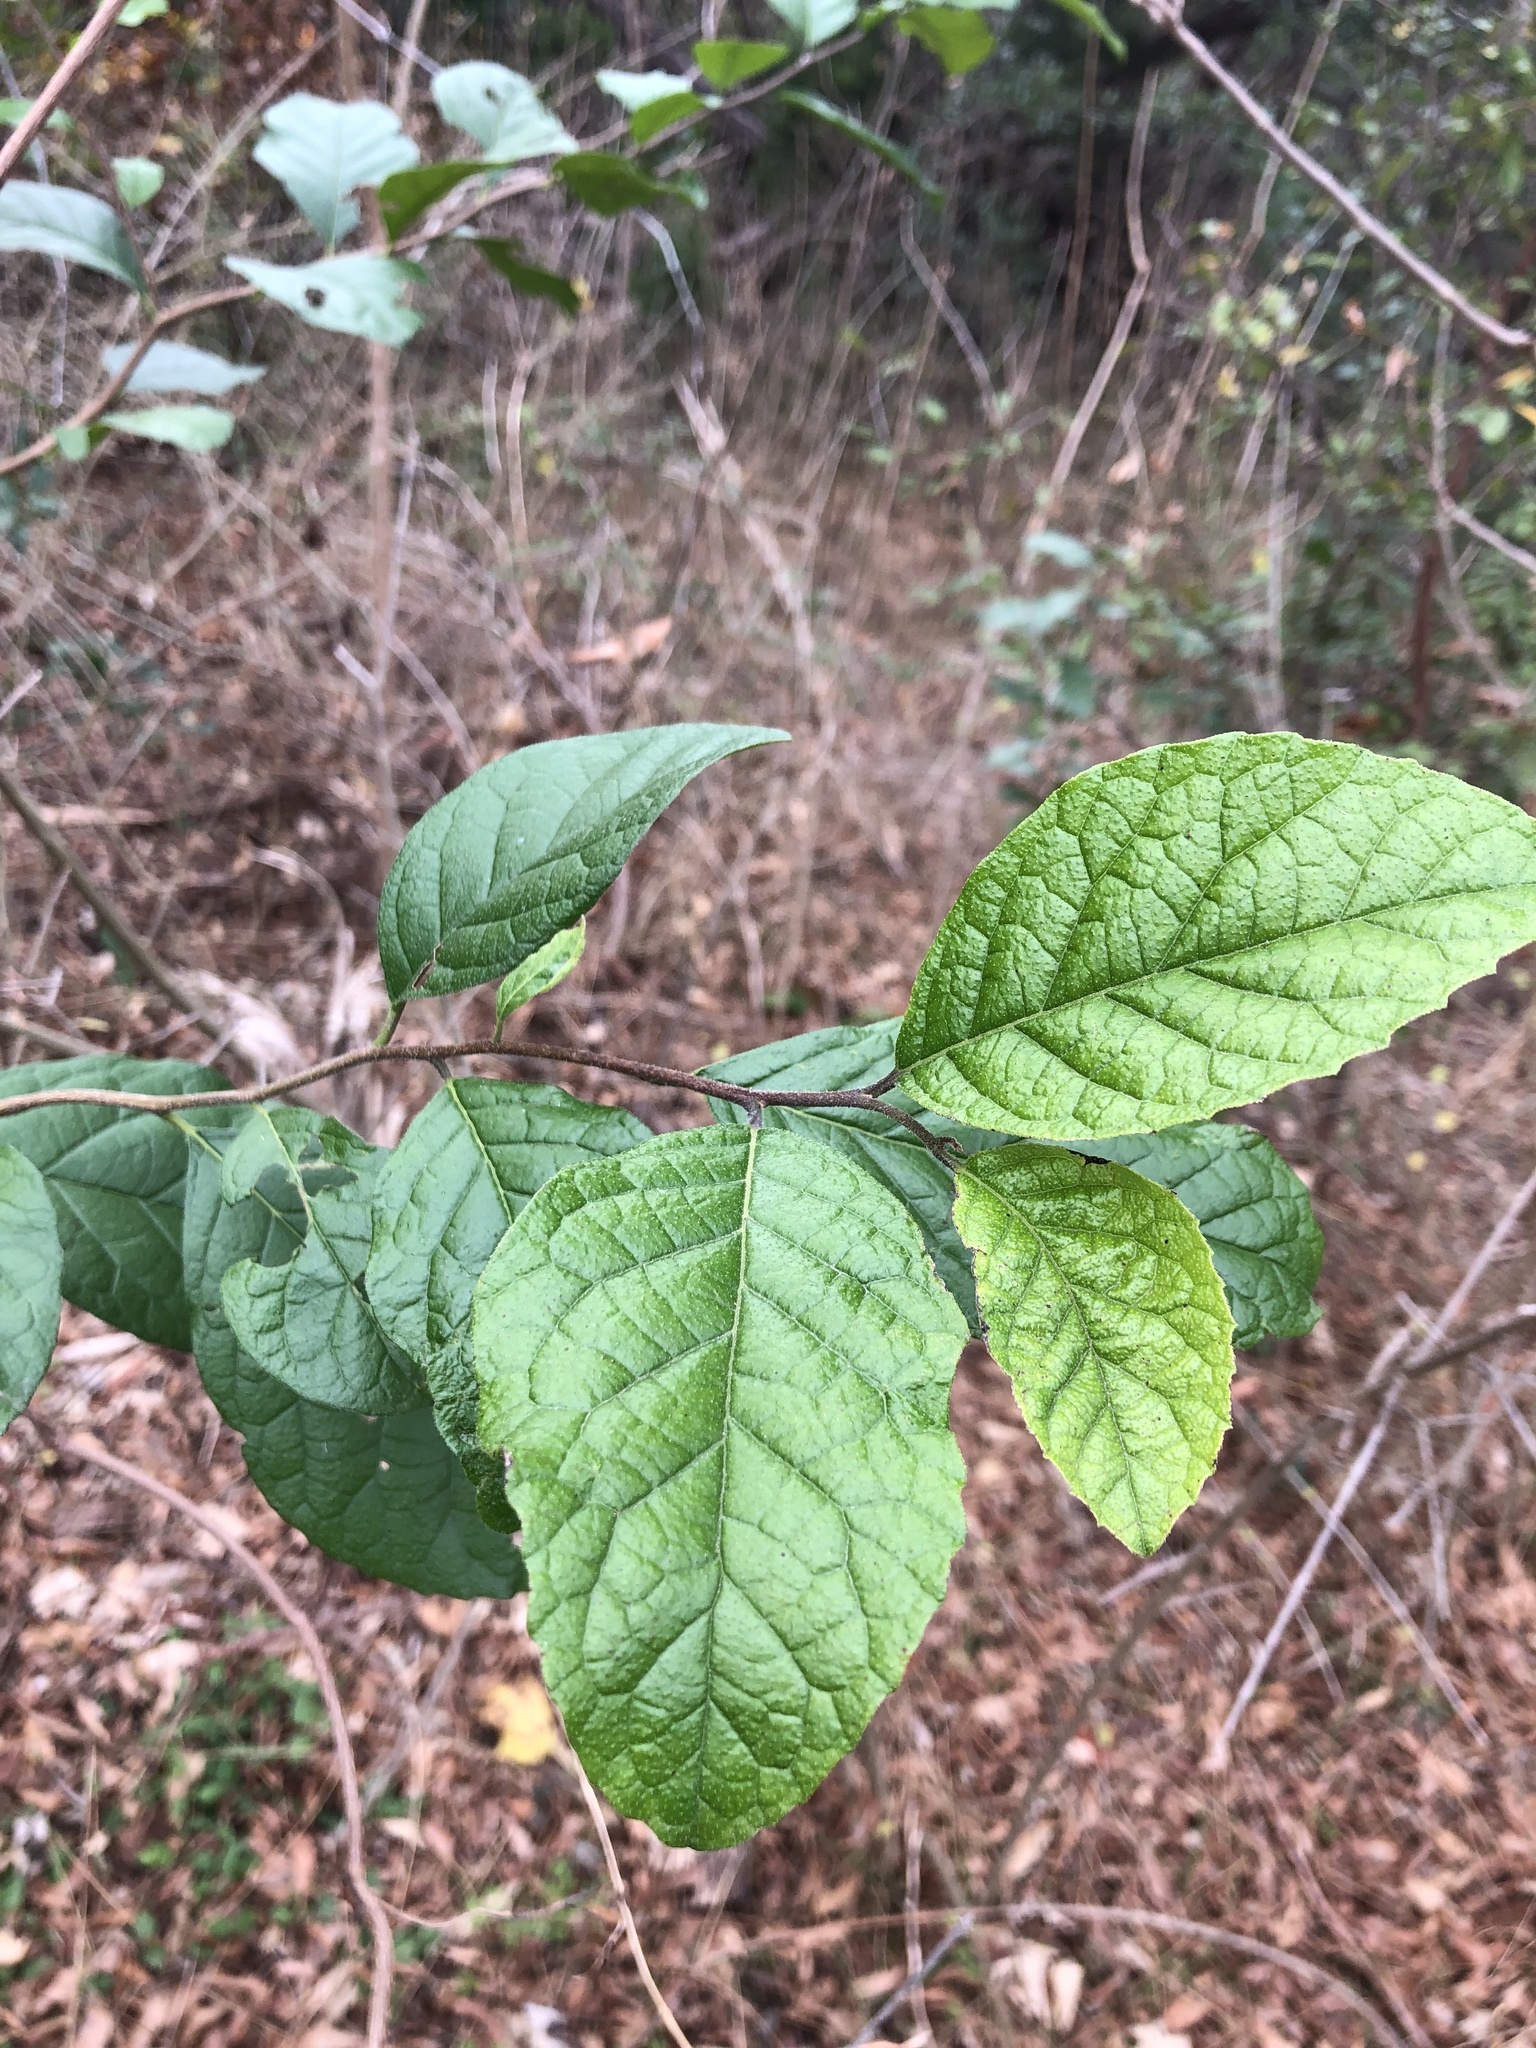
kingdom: Plantae
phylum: Tracheophyta
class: Magnoliopsida
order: Boraginales
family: Ehretiaceae
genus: Ehretia
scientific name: Ehretia anacua
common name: Sugarberry
